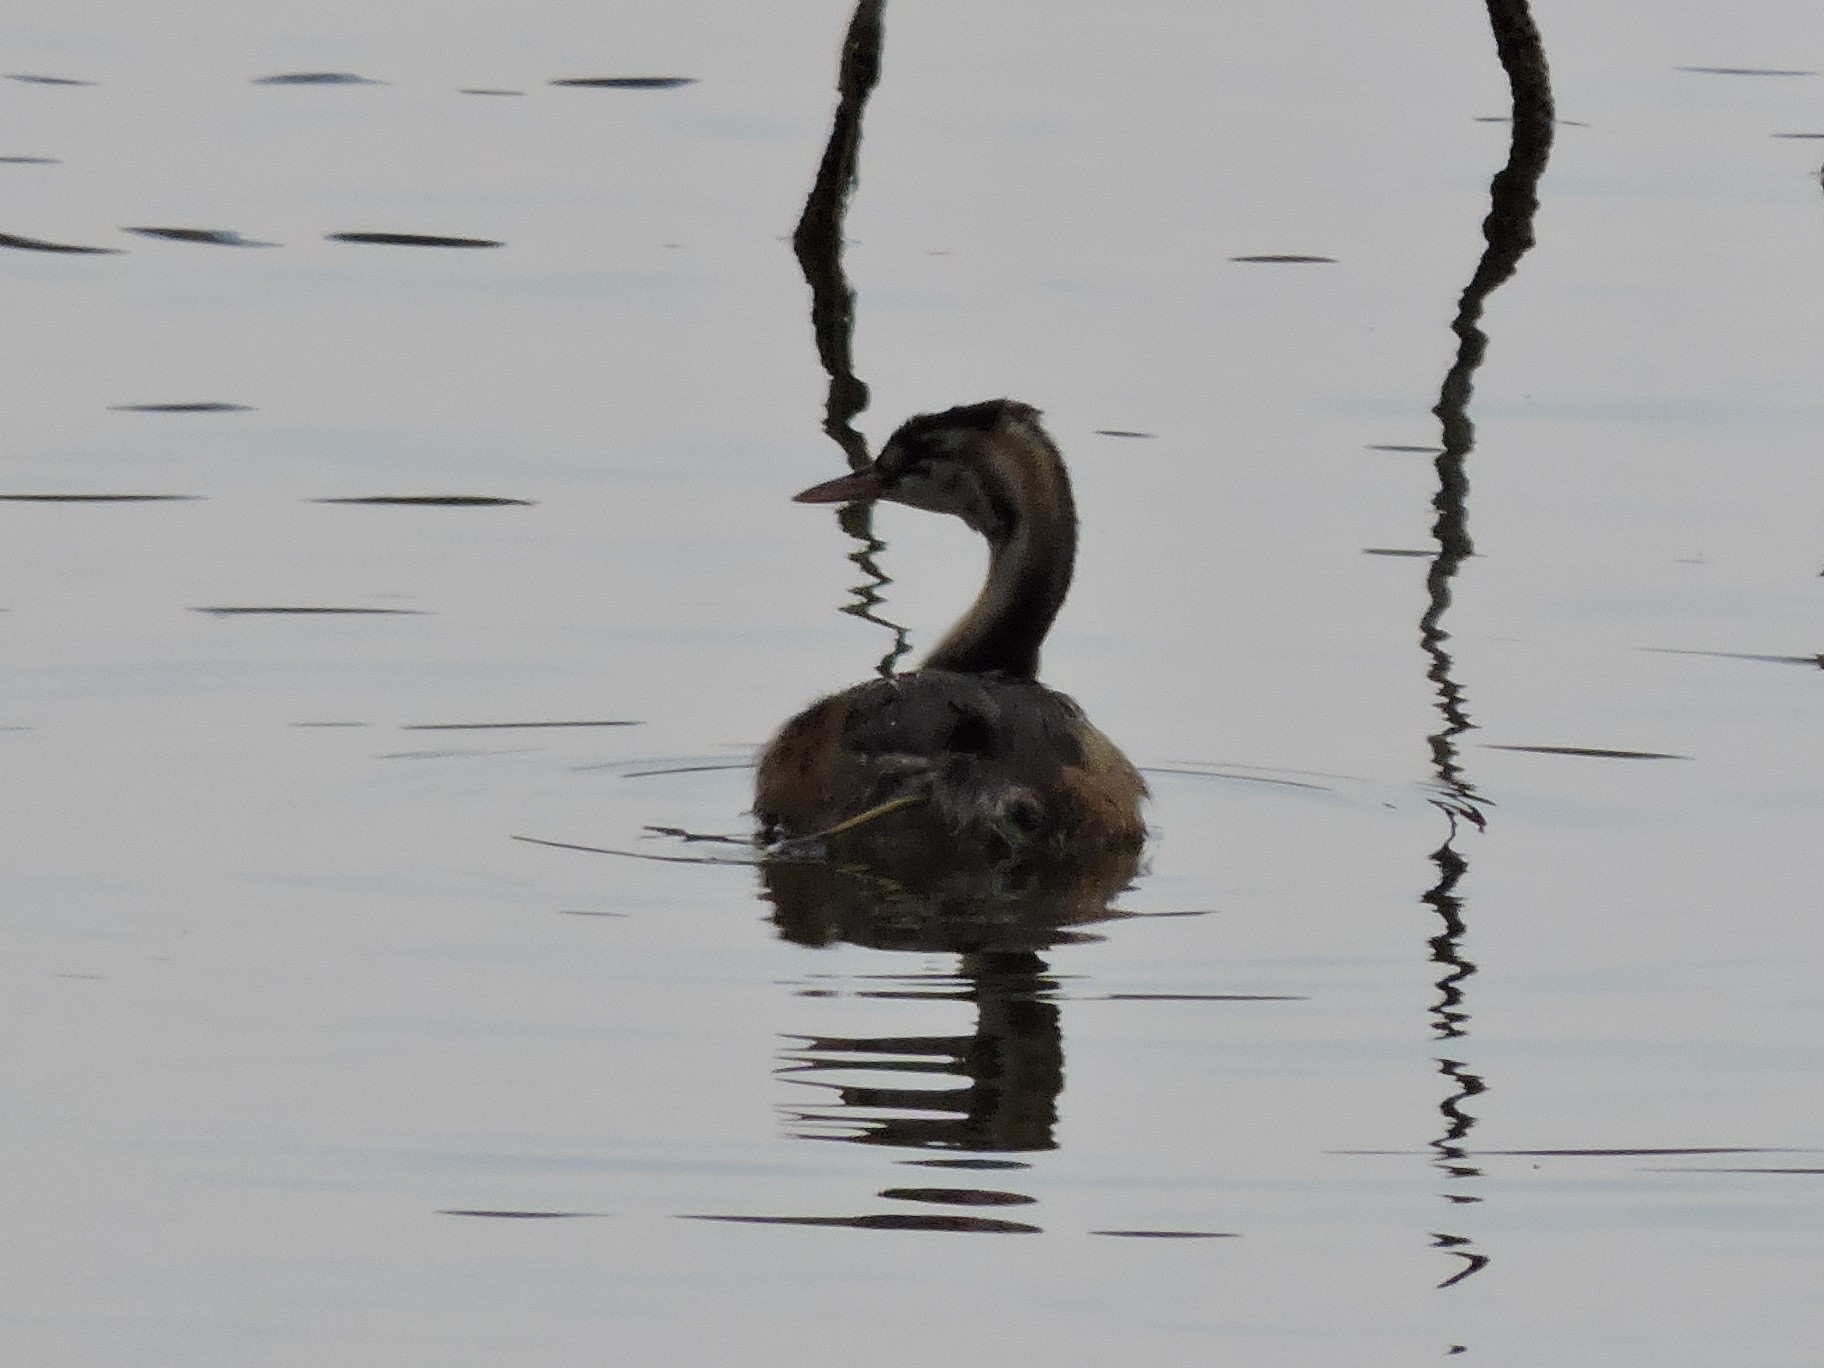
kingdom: Animalia
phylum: Chordata
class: Aves
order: Podicipediformes
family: Podicipedidae
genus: Podiceps
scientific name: Podiceps cristatus
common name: Great crested grebe
